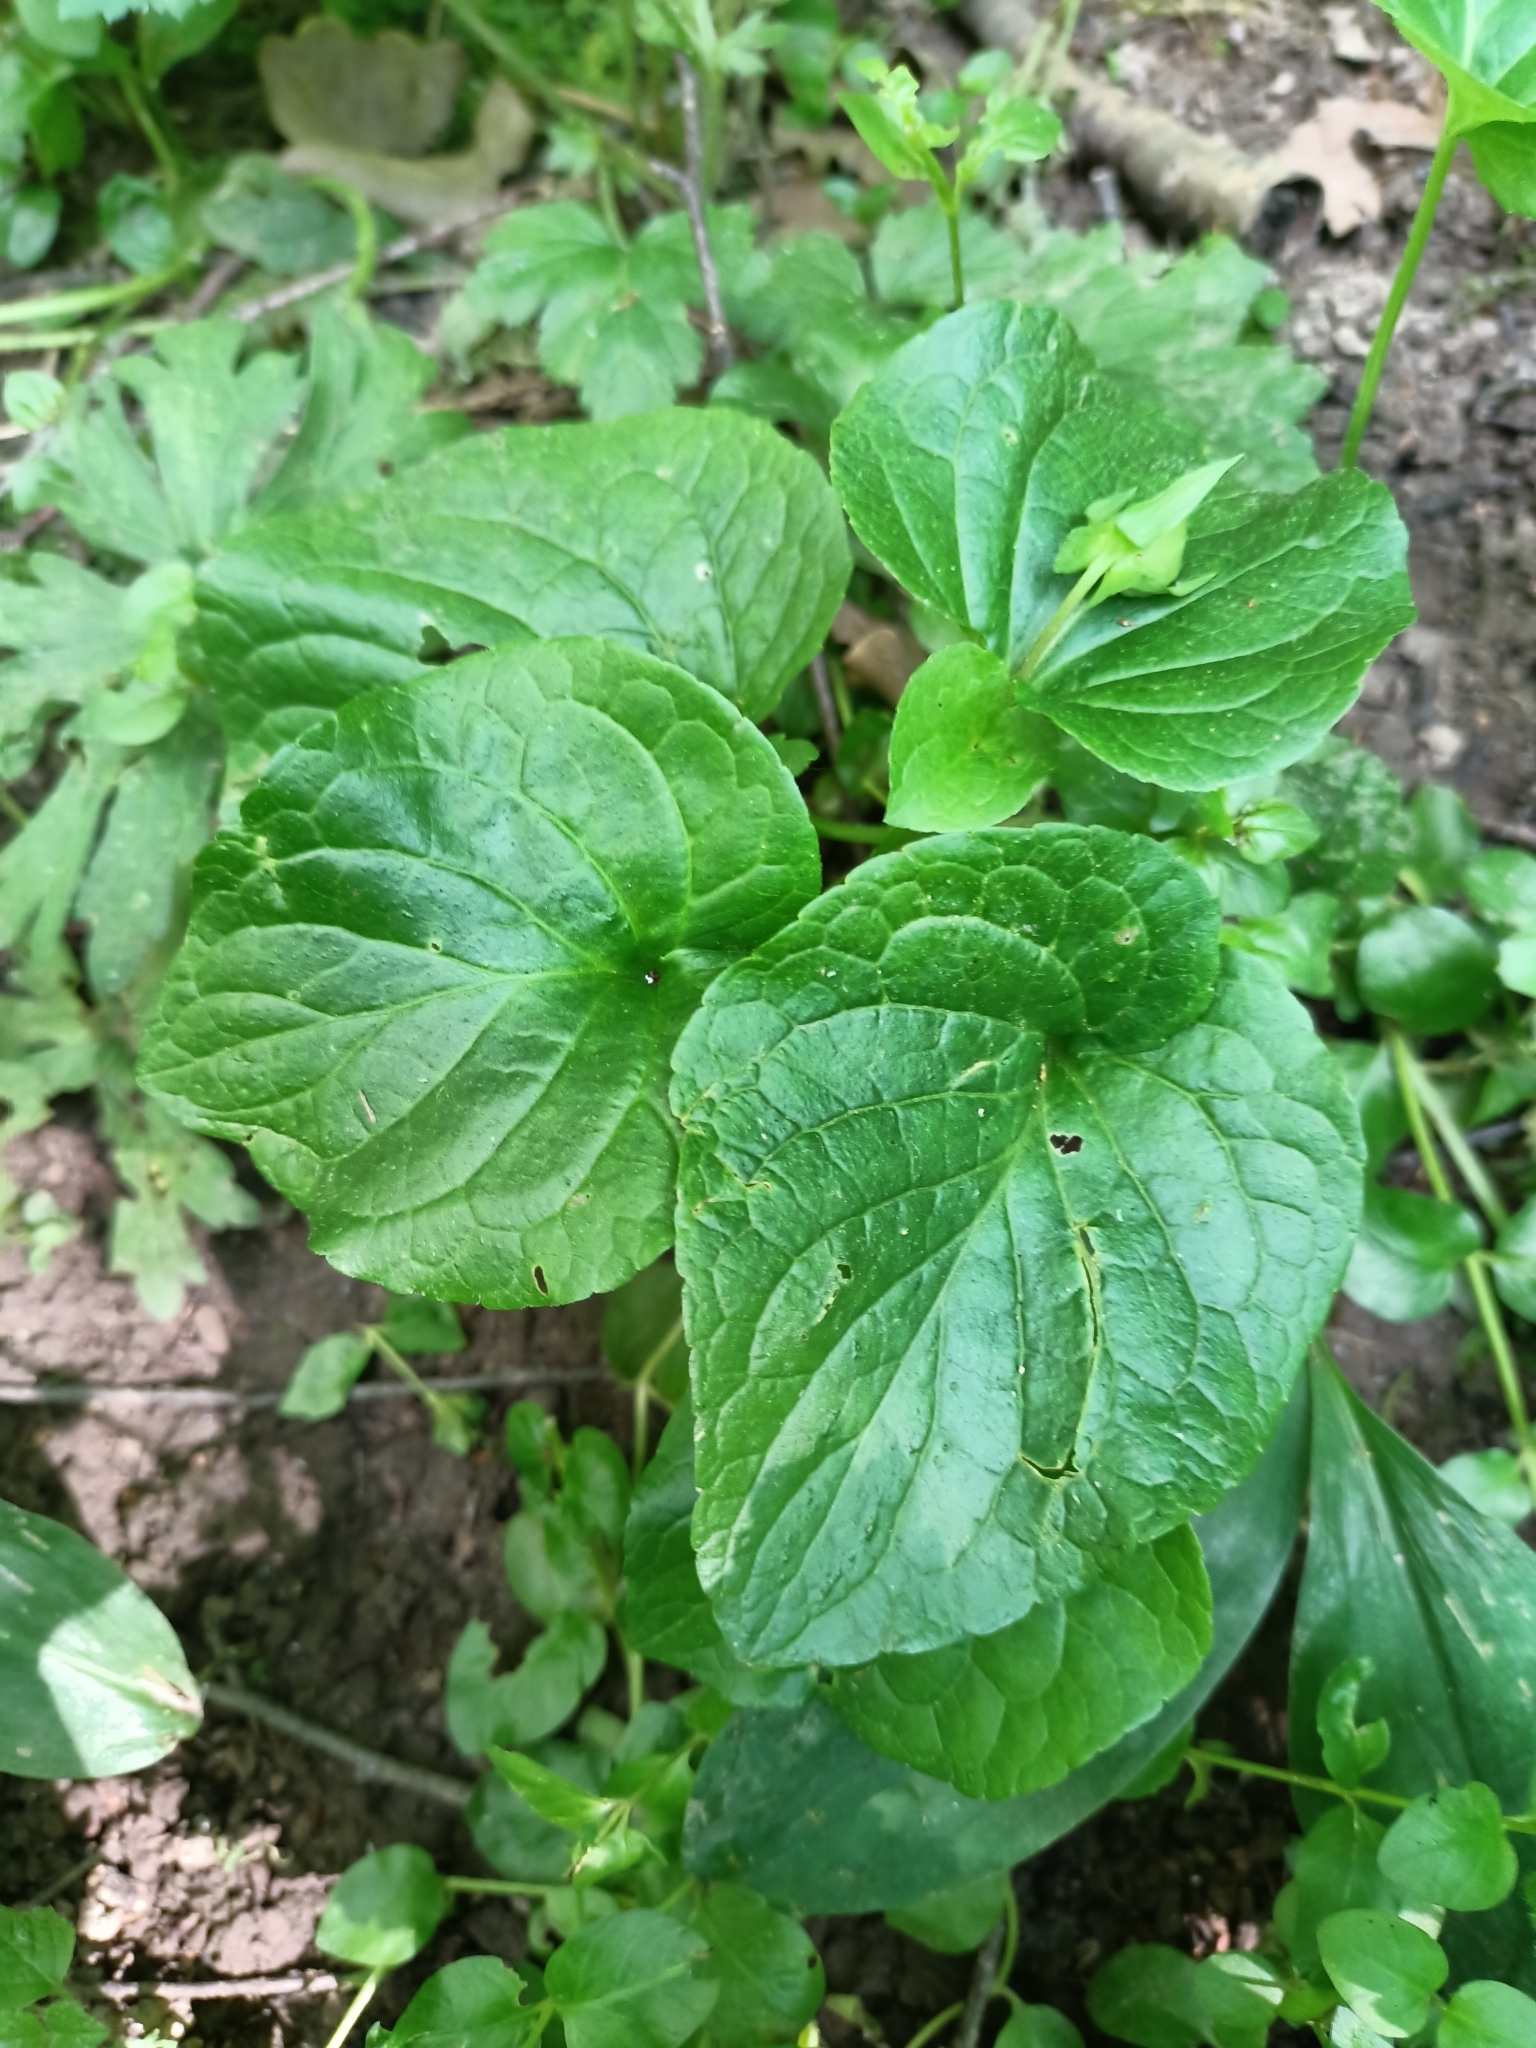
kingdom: Plantae
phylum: Tracheophyta
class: Magnoliopsida
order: Malpighiales
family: Violaceae
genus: Viola
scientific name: Viola mirabilis
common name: Wonder violet
